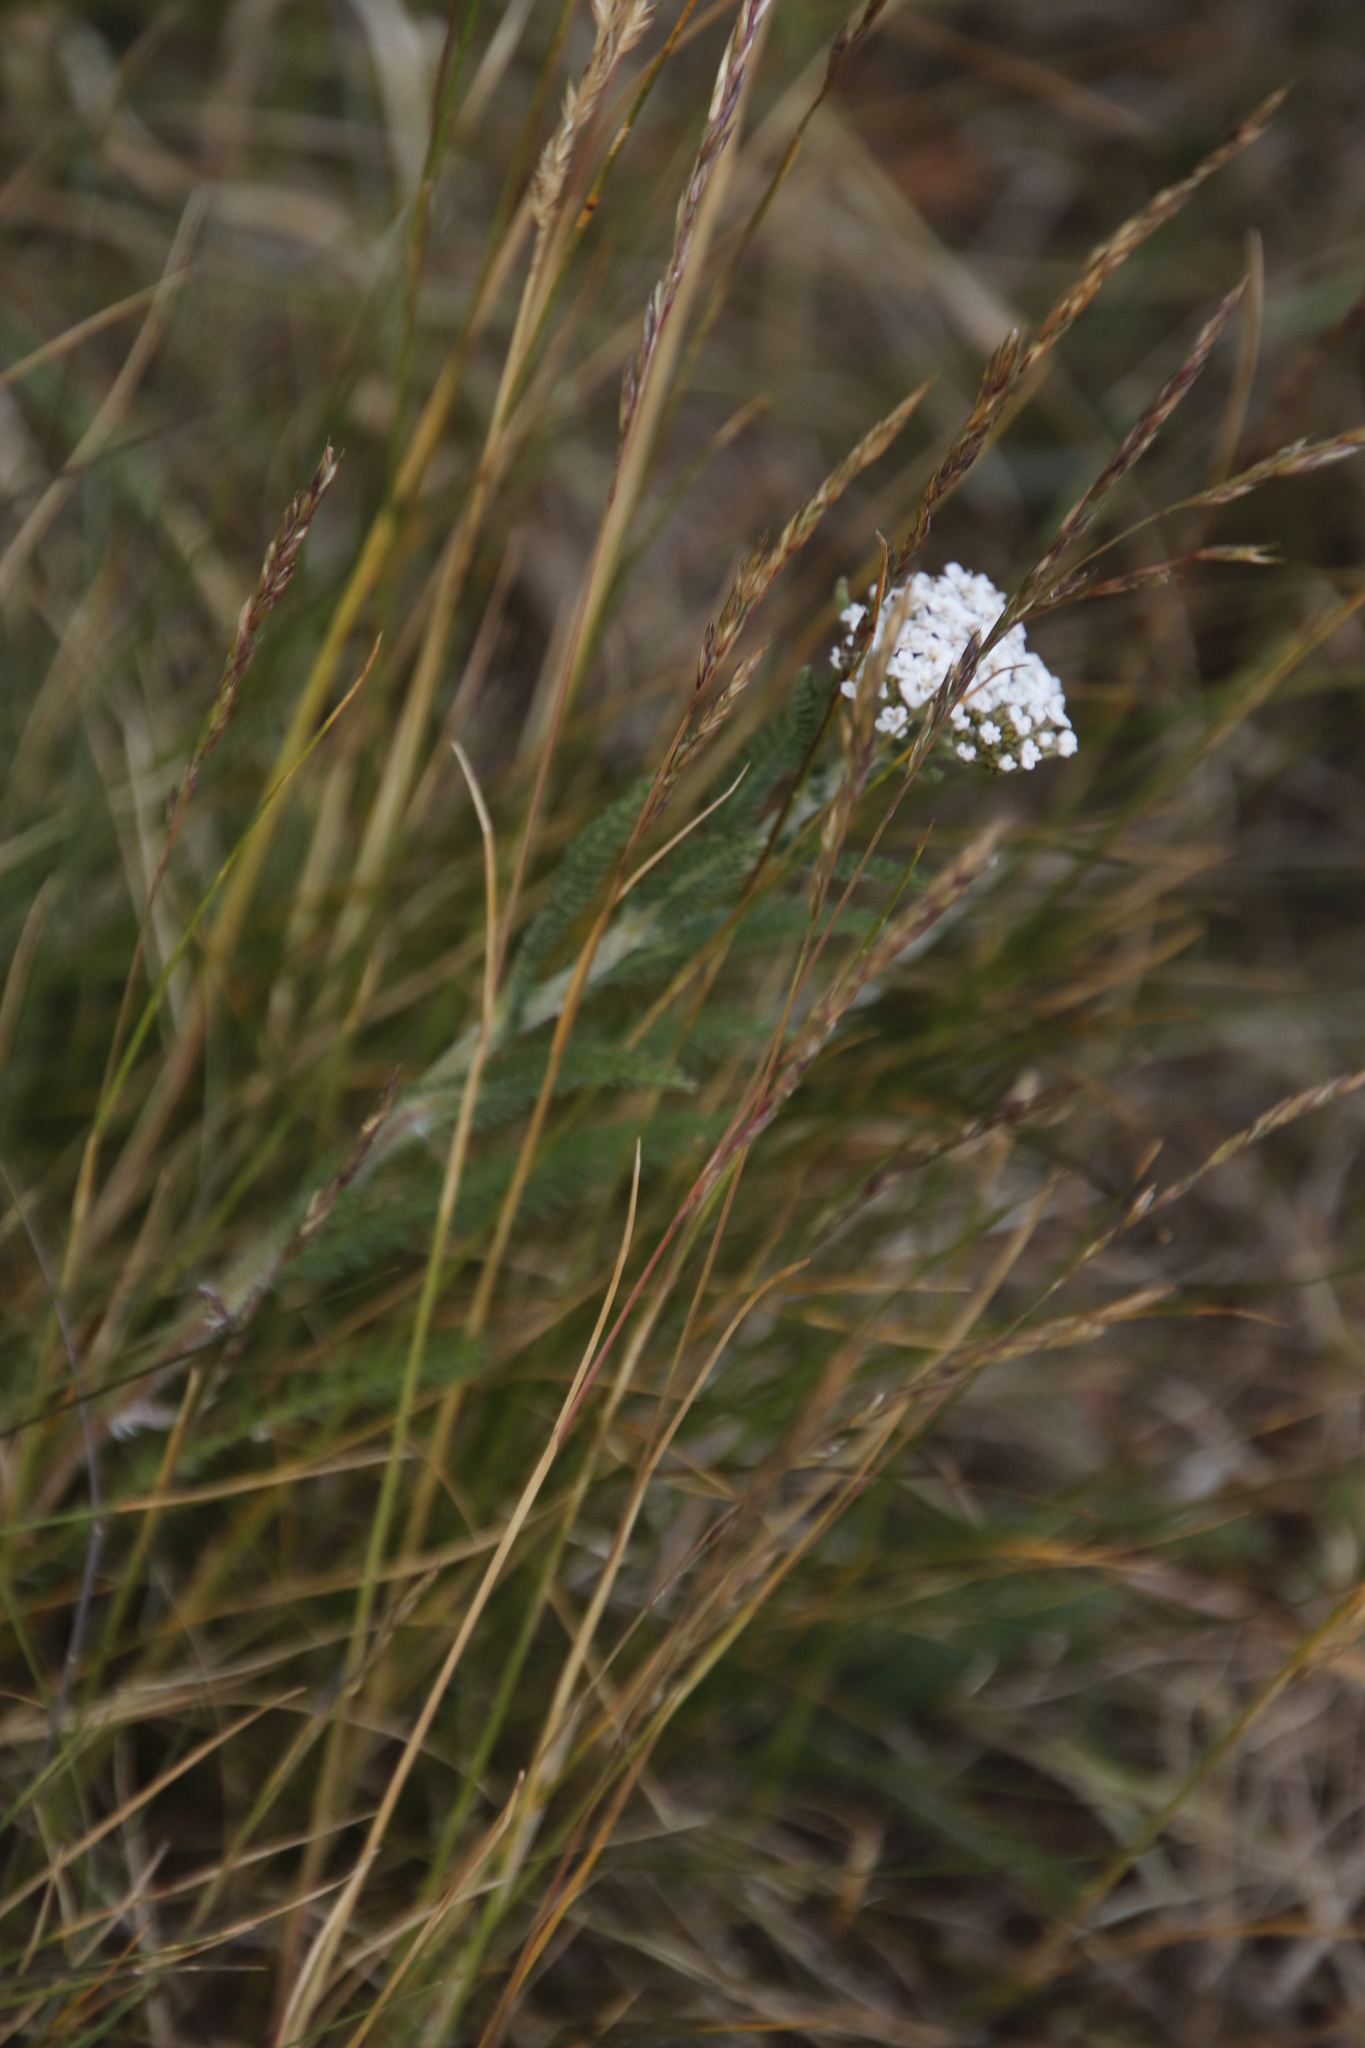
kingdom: Plantae
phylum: Tracheophyta
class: Magnoliopsida
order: Asterales
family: Asteraceae
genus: Achillea
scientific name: Achillea millefolium
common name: Yarrow
